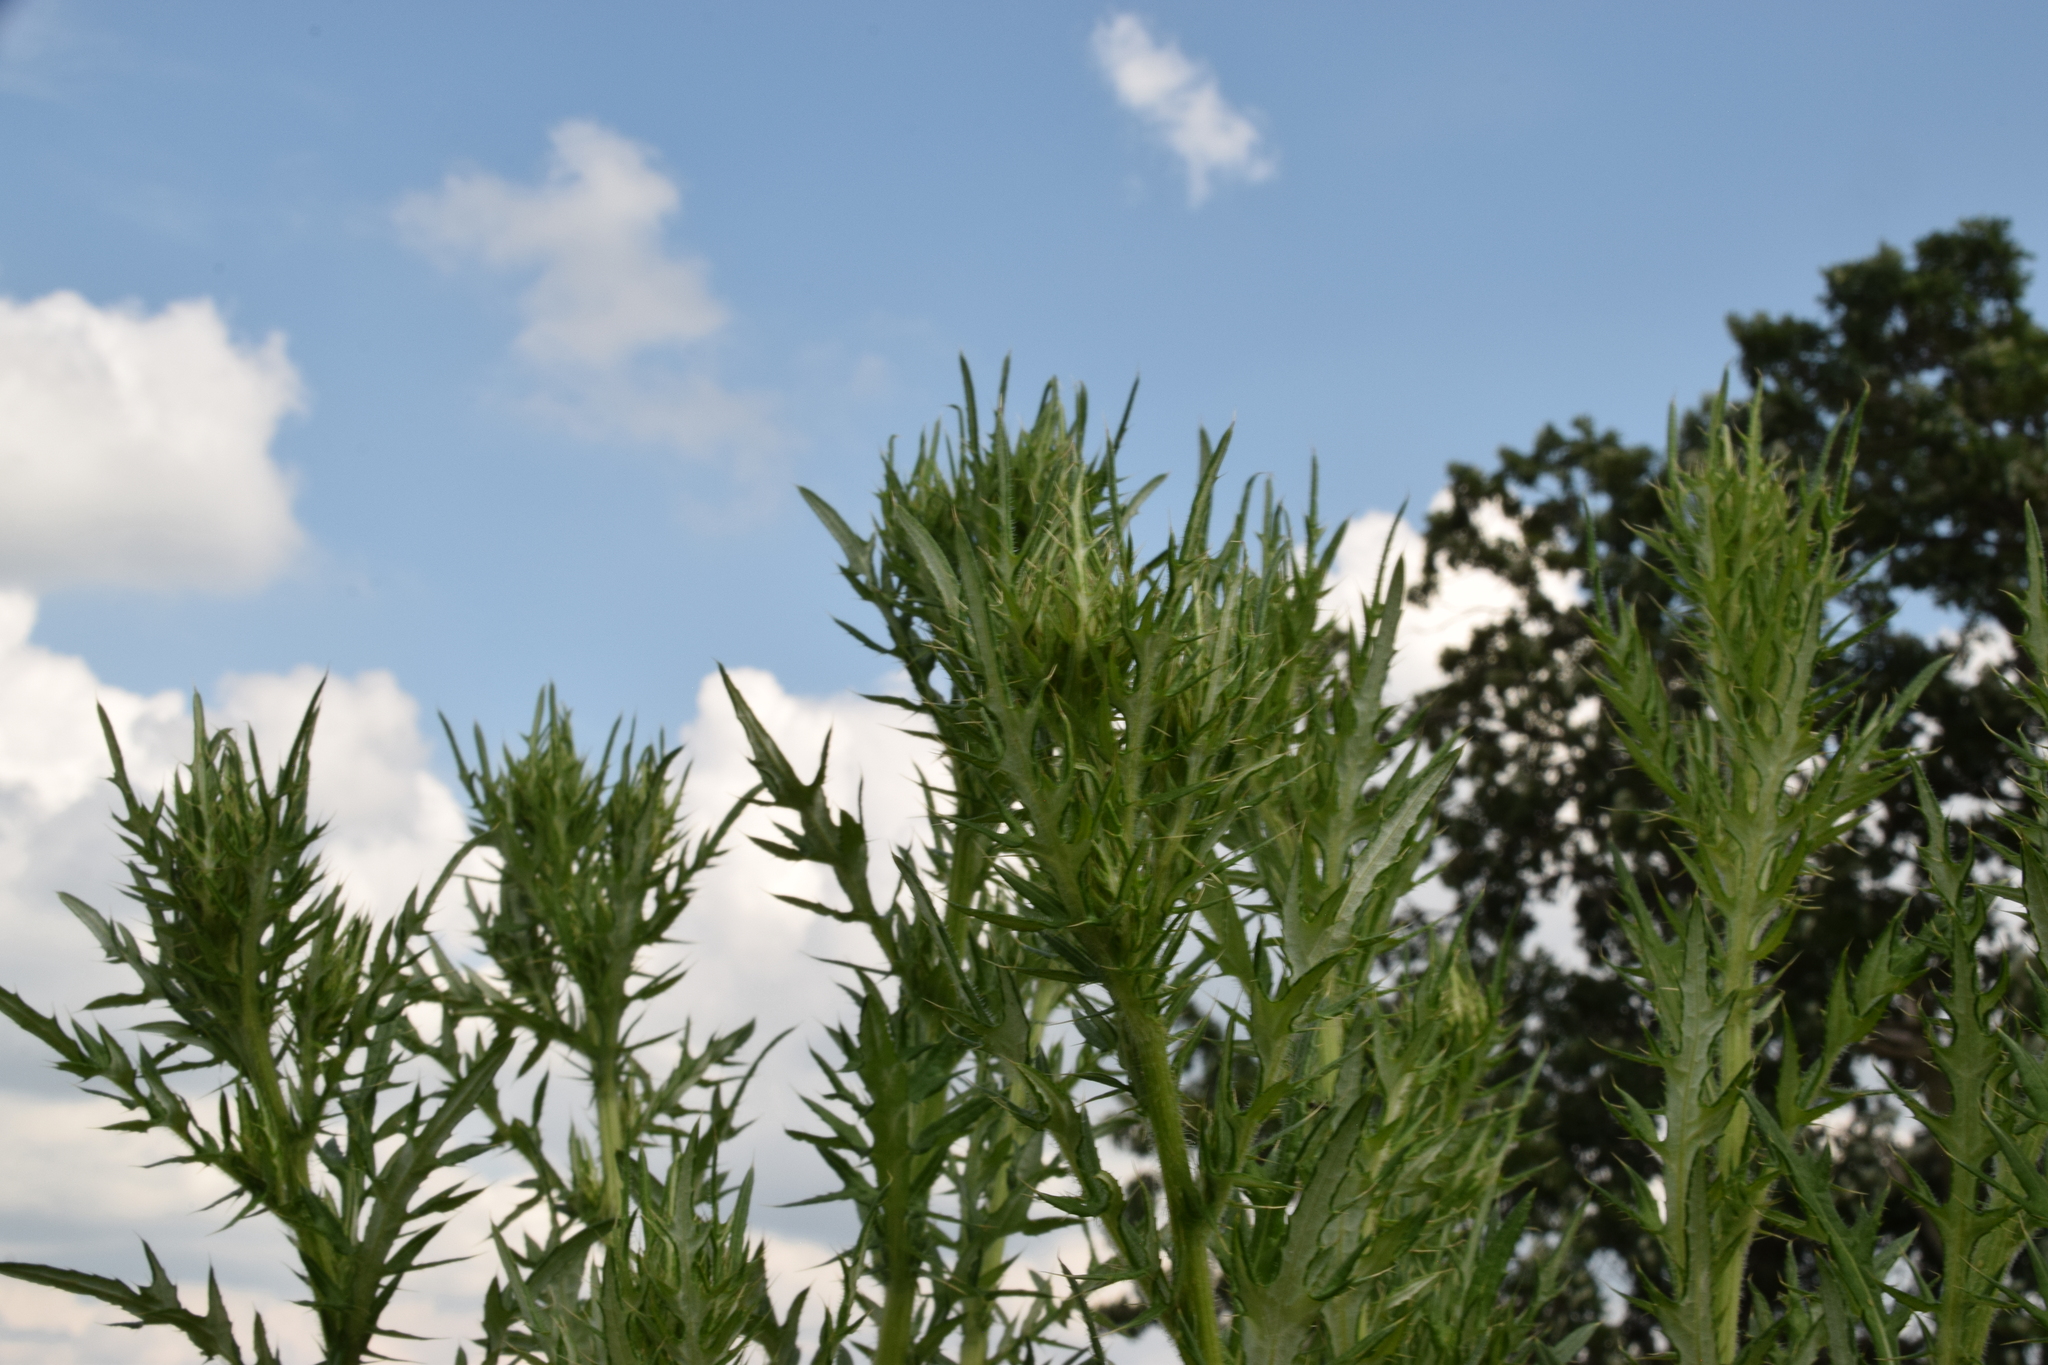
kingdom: Plantae
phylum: Tracheophyta
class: Magnoliopsida
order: Asterales
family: Asteraceae
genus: Cirsium
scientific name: Cirsium discolor
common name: Field thistle
